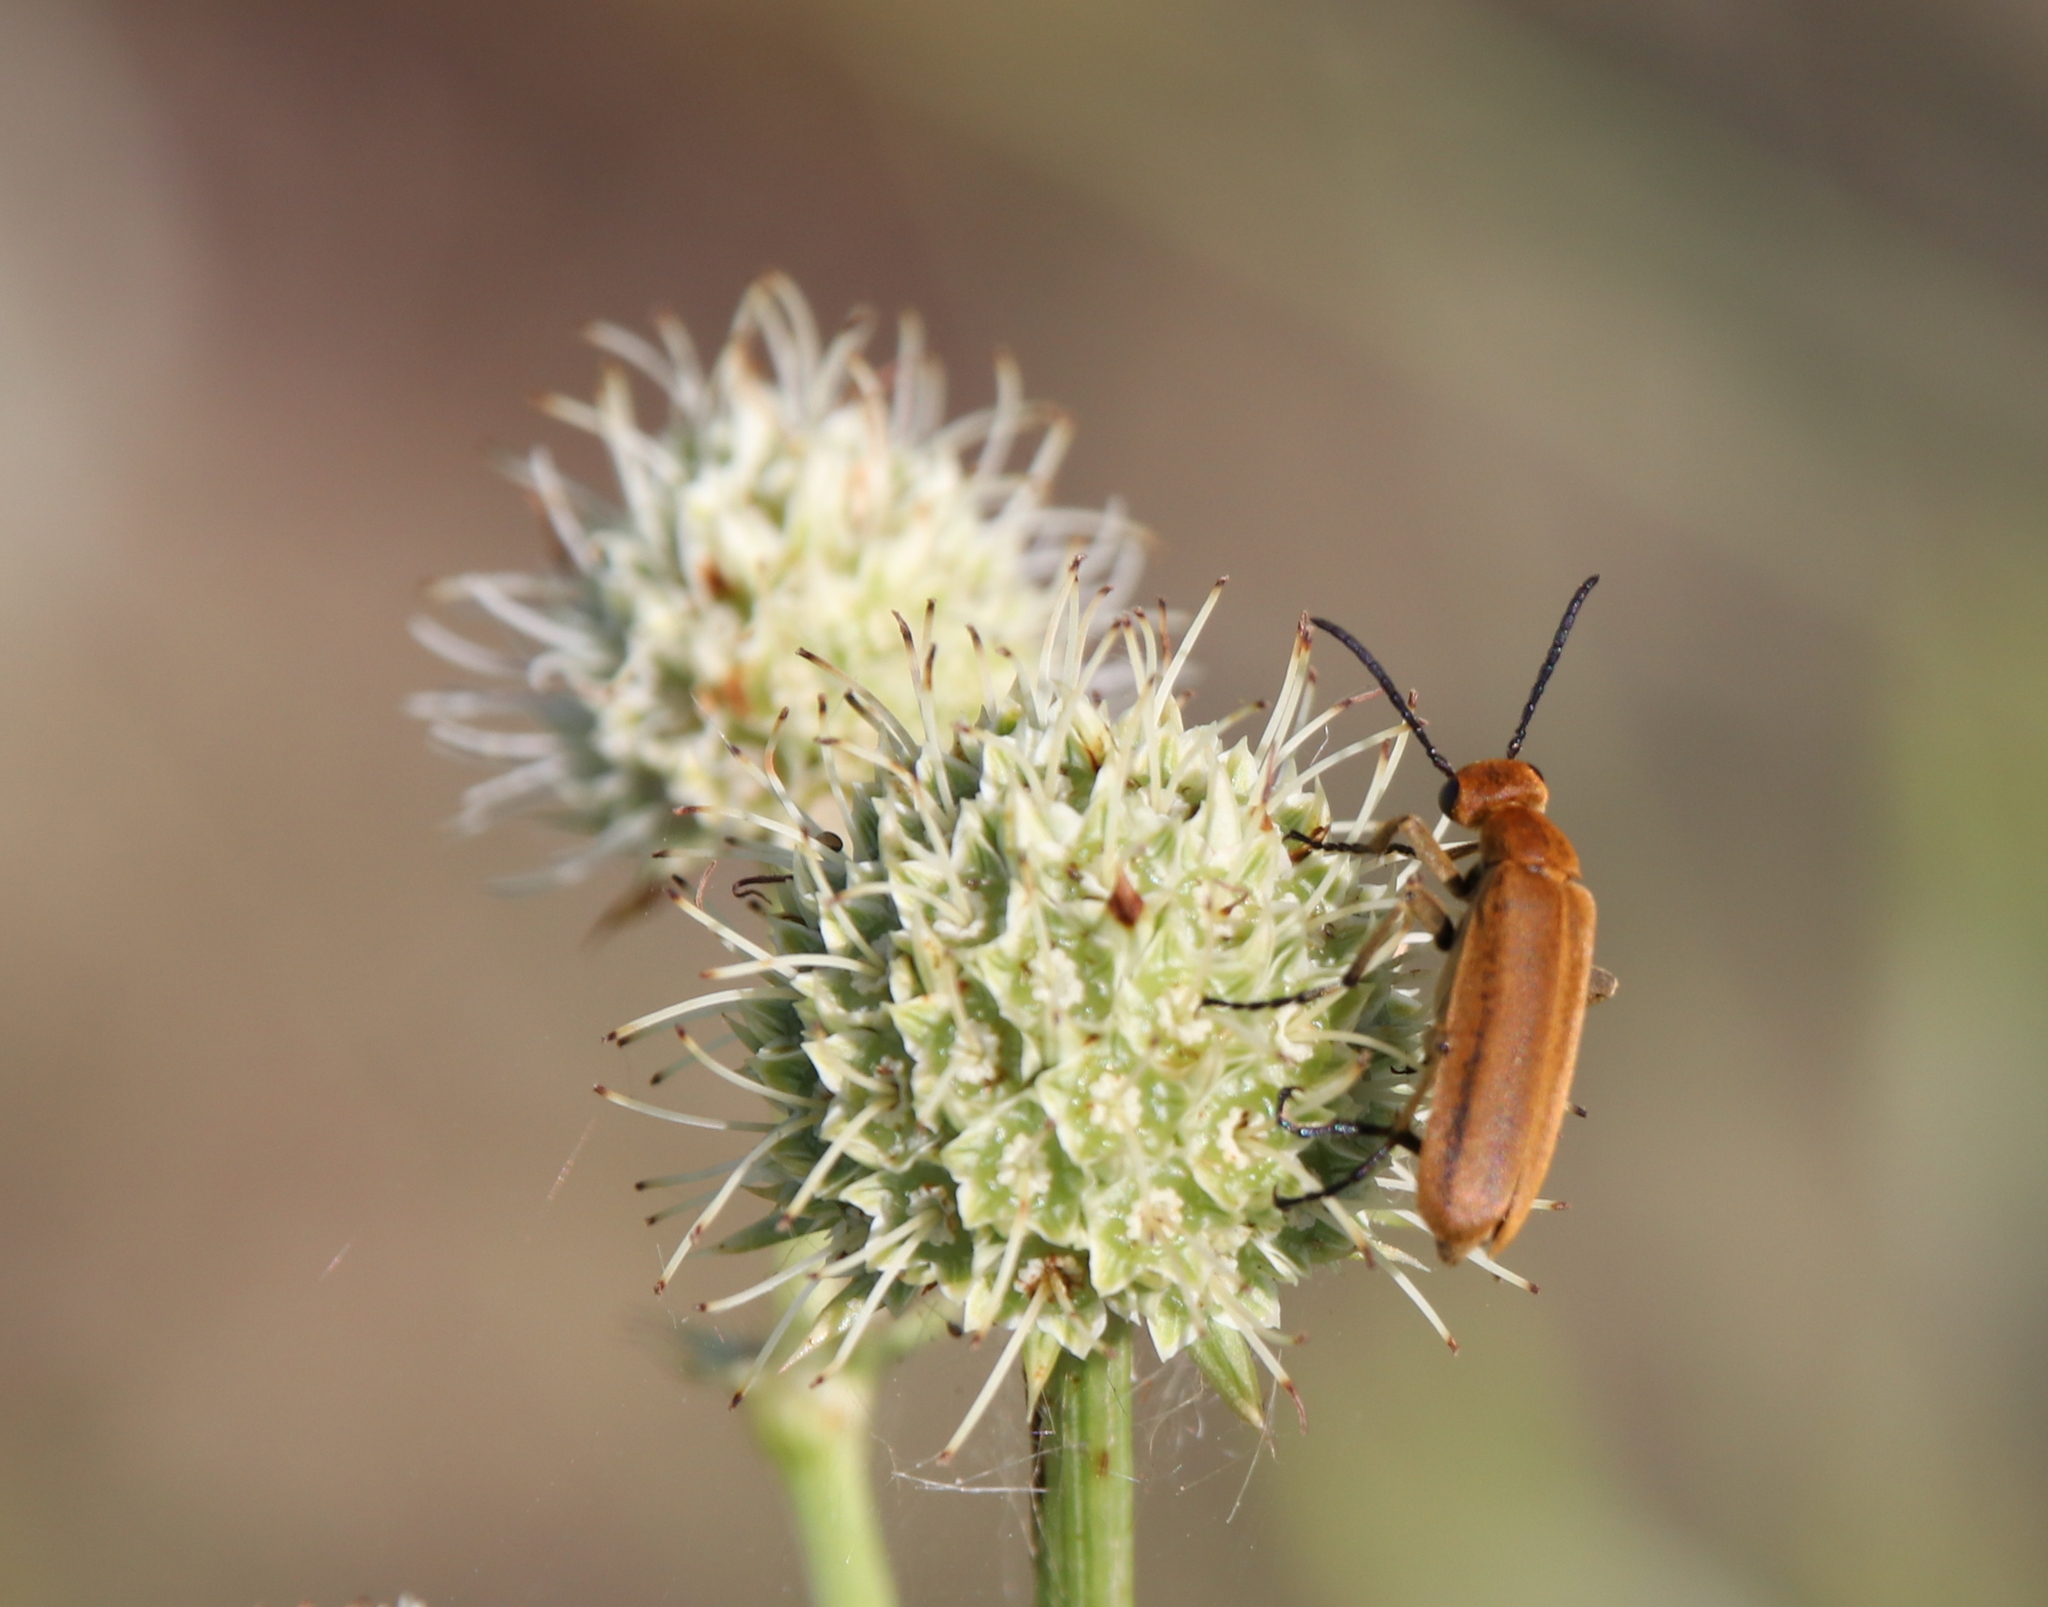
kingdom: Animalia
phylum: Arthropoda
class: Insecta
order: Coleoptera
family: Meloidae
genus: Epicauta
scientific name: Epicauta strigosa
